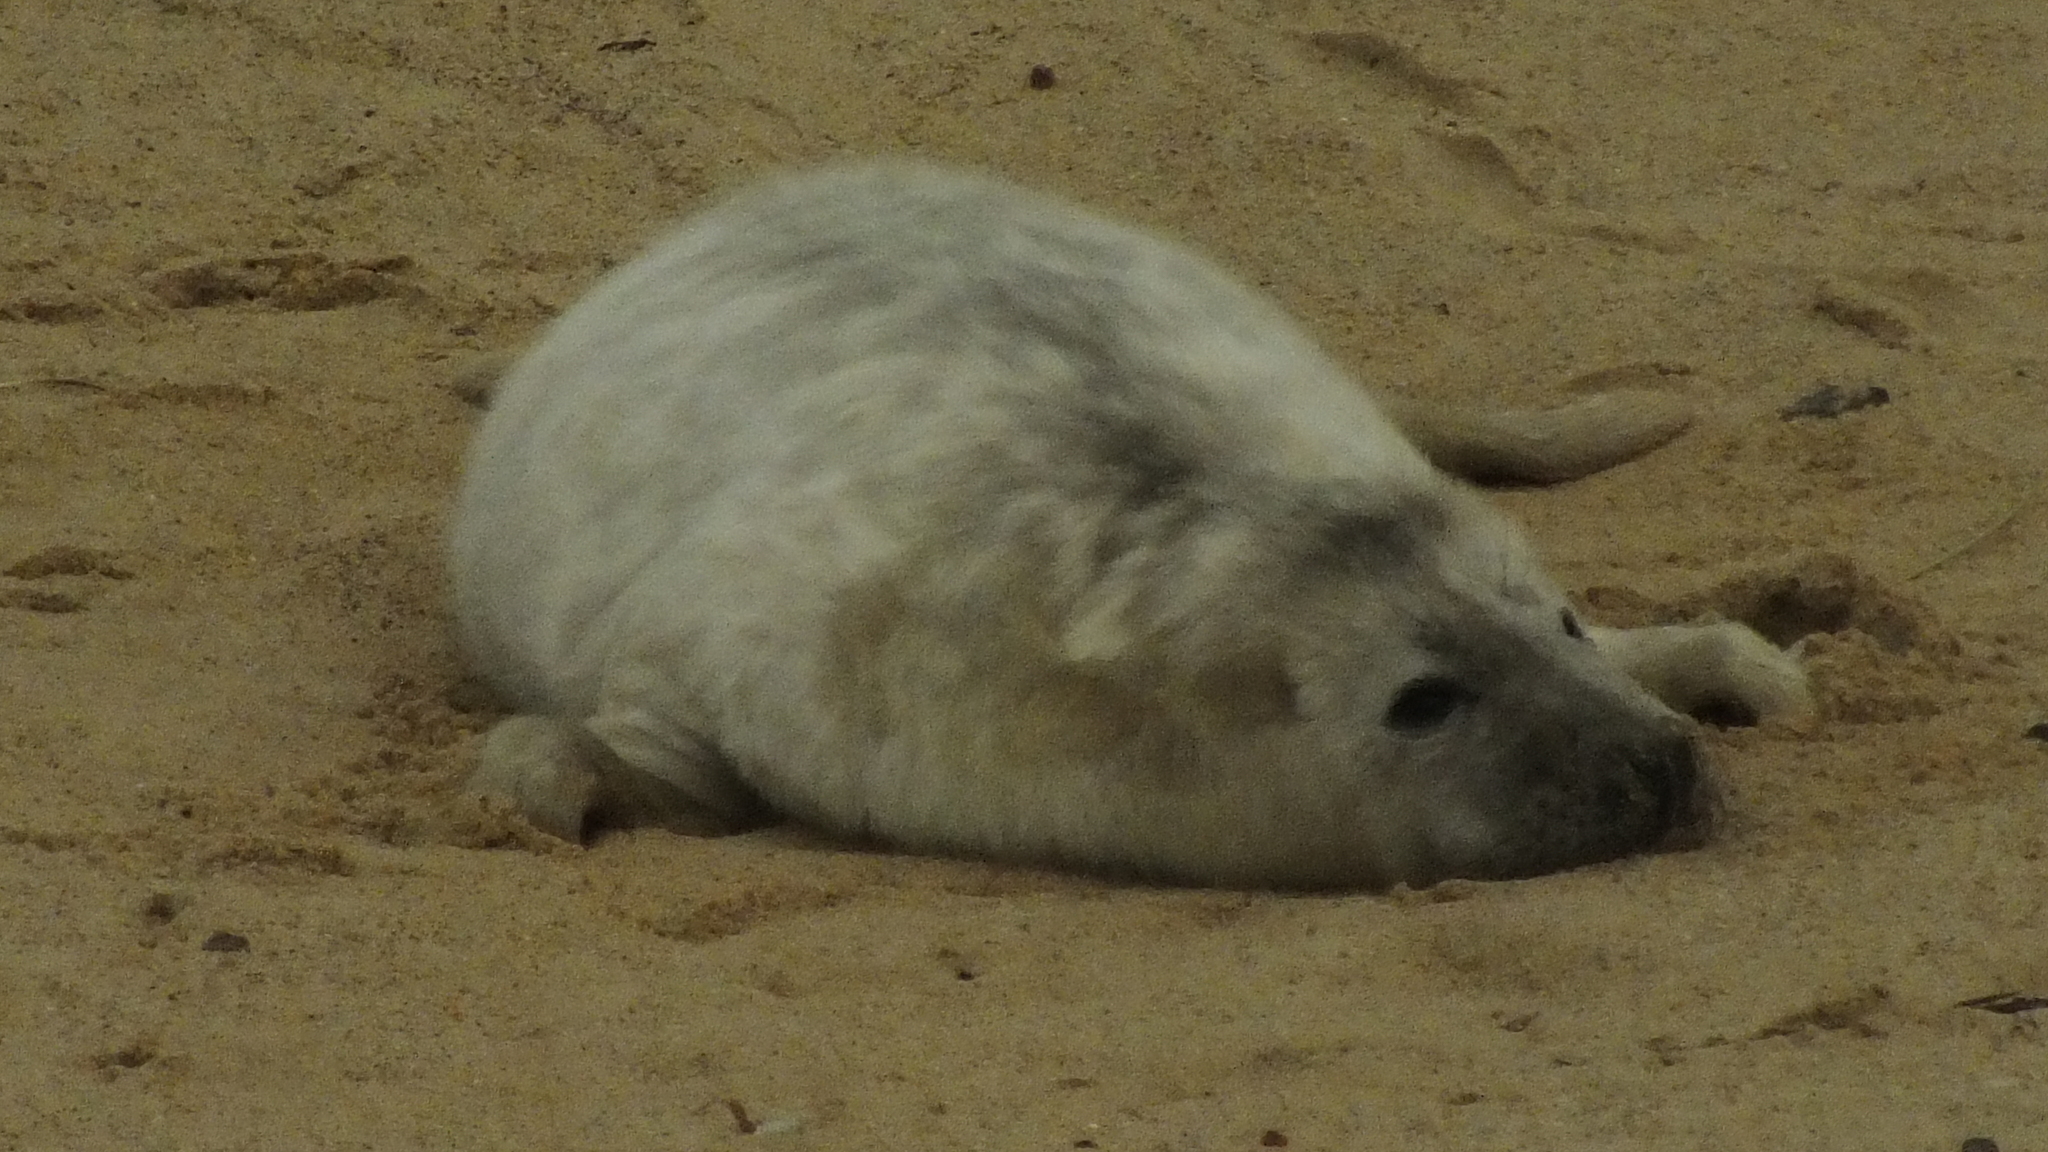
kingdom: Animalia
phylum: Chordata
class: Mammalia
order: Carnivora
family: Phocidae
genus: Halichoerus
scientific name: Halichoerus grypus
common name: Grey seal
